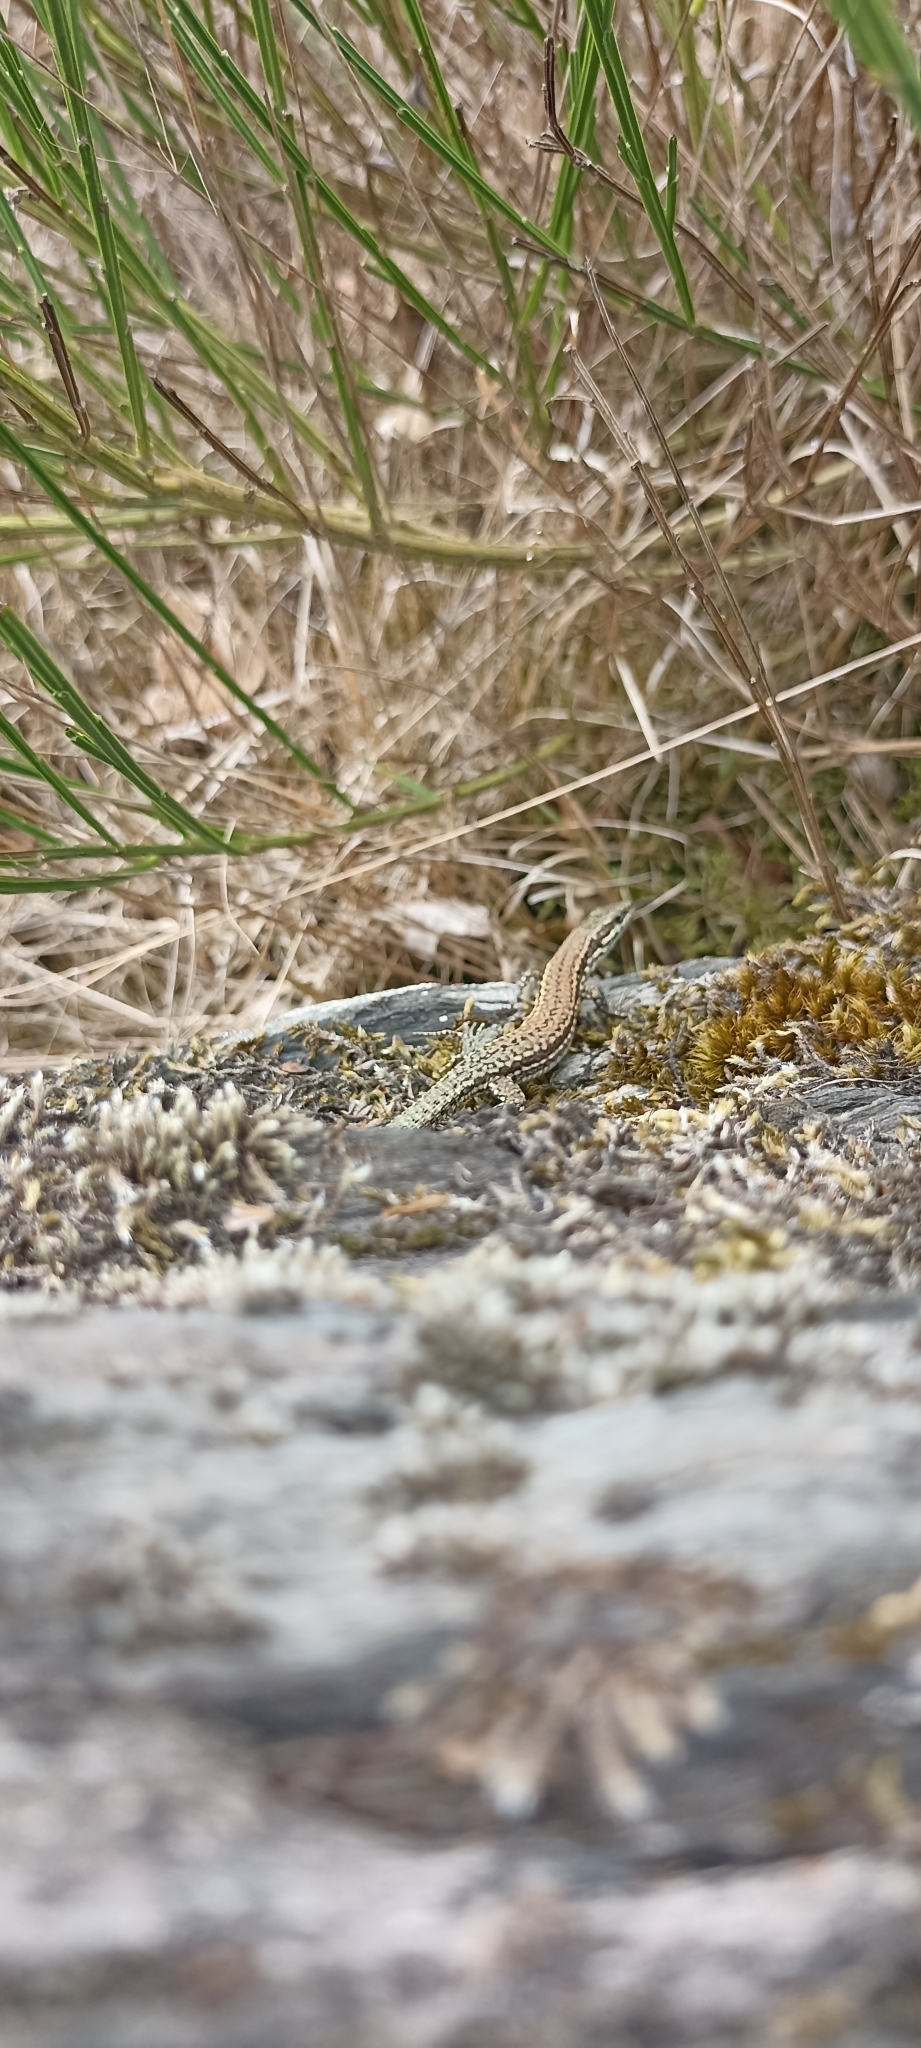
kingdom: Animalia
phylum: Chordata
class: Squamata
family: Lacertidae
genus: Podarcis
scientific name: Podarcis muralis
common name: Common wall lizard
